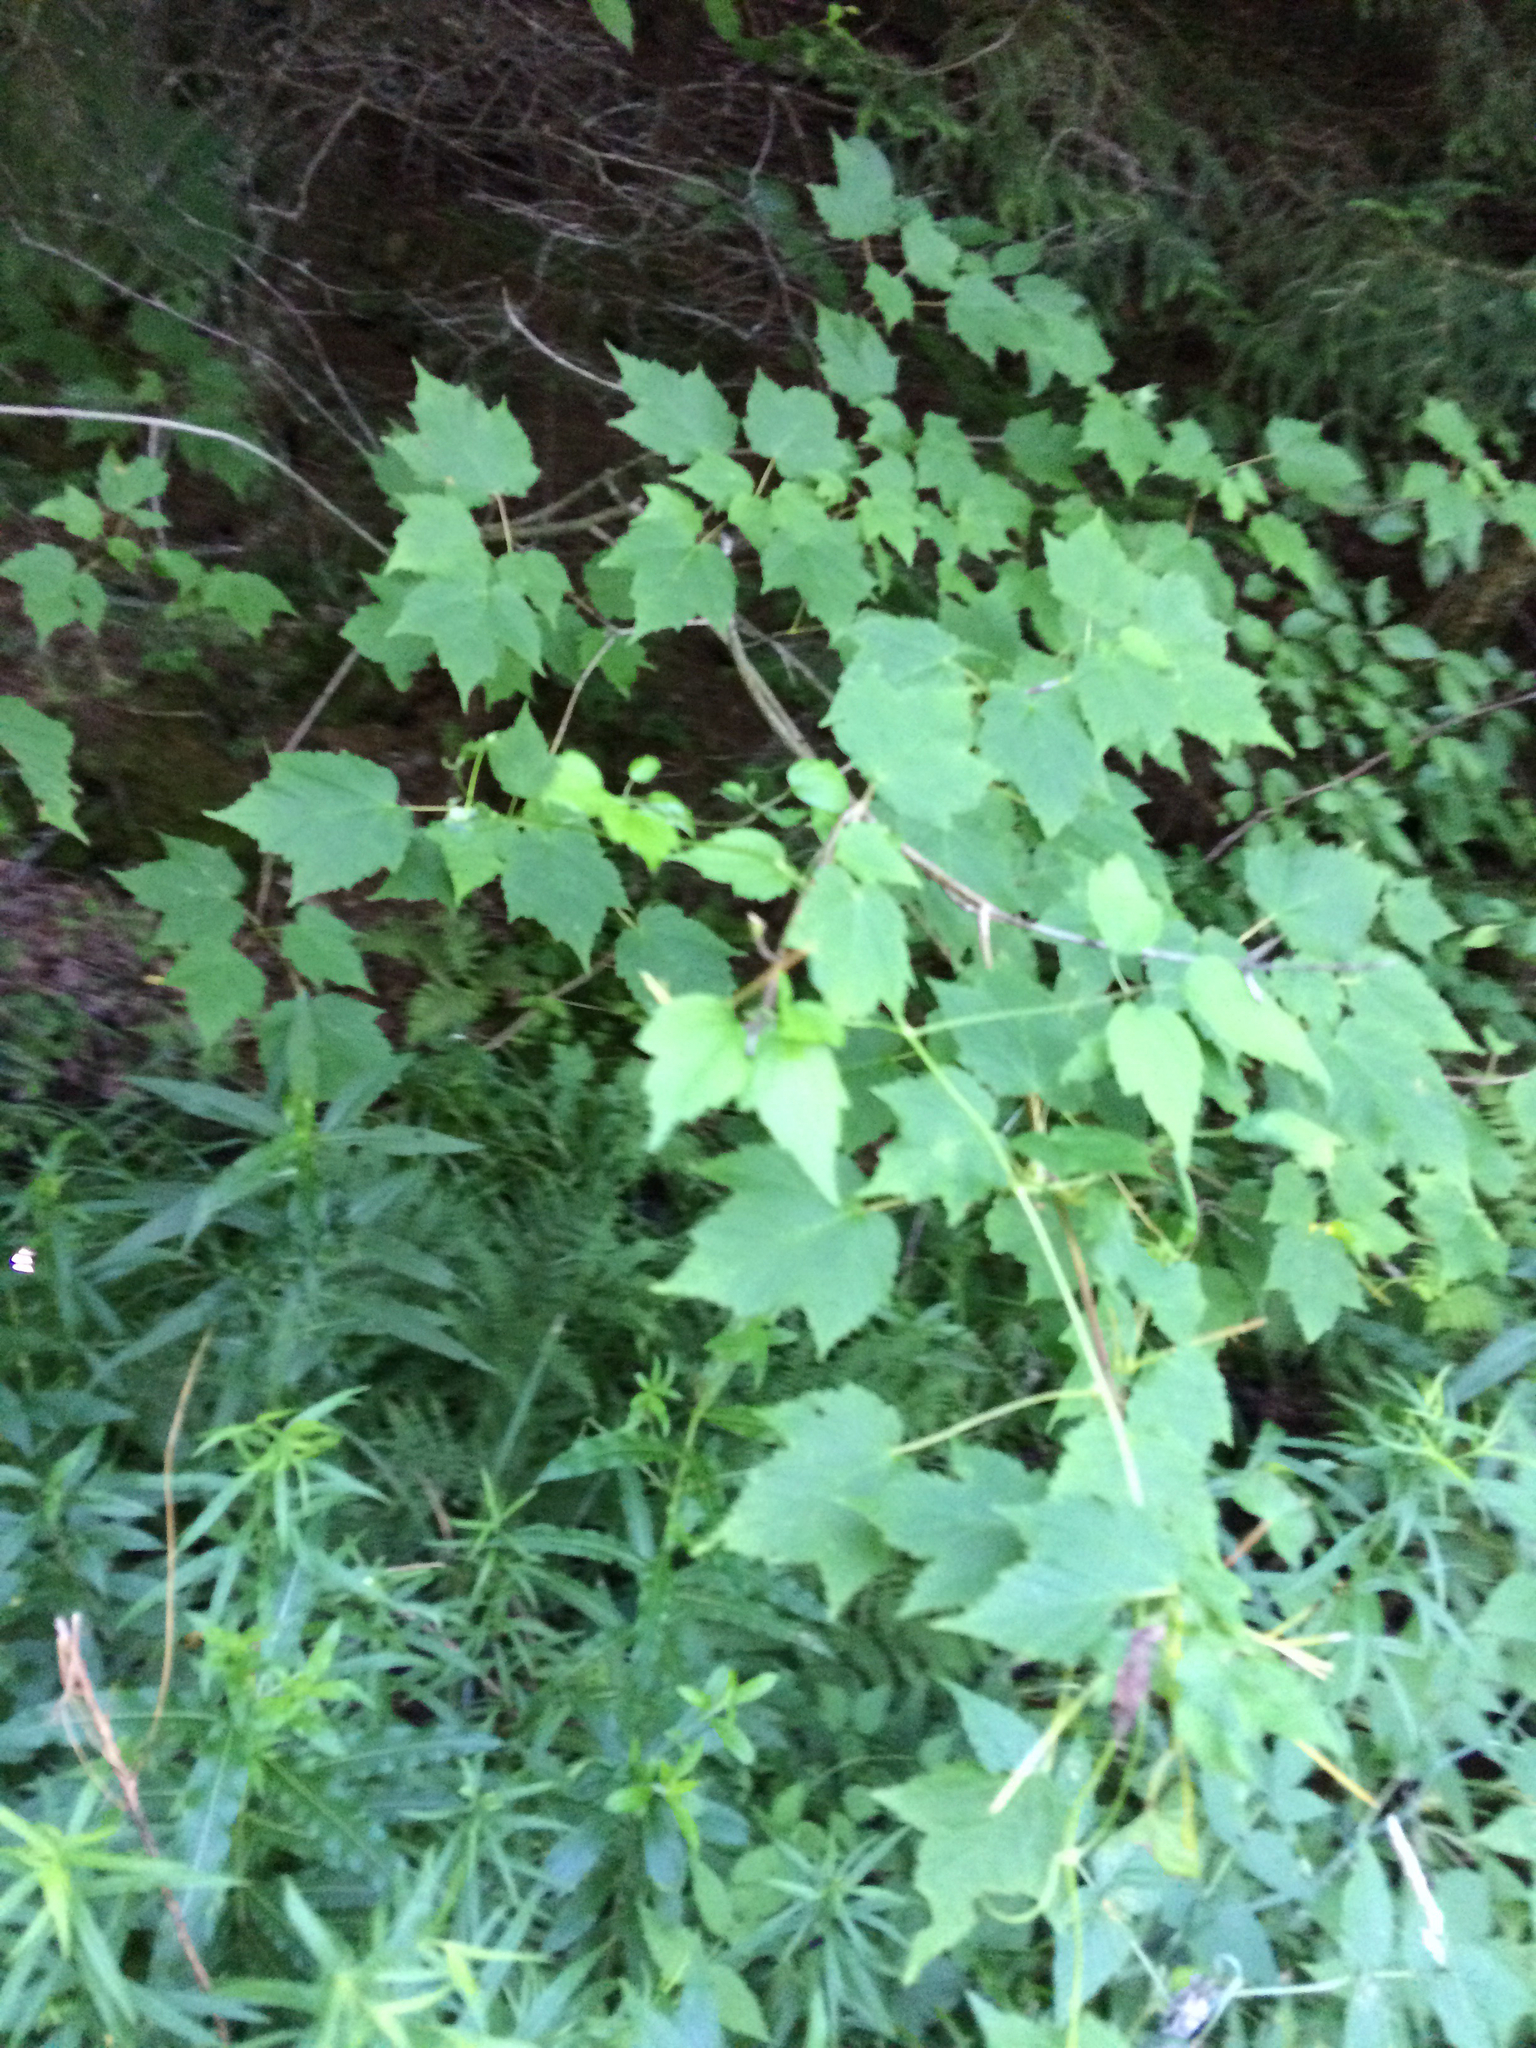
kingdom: Plantae
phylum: Tracheophyta
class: Magnoliopsida
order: Sapindales
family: Sapindaceae
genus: Acer
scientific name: Acer rubrum
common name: Red maple
